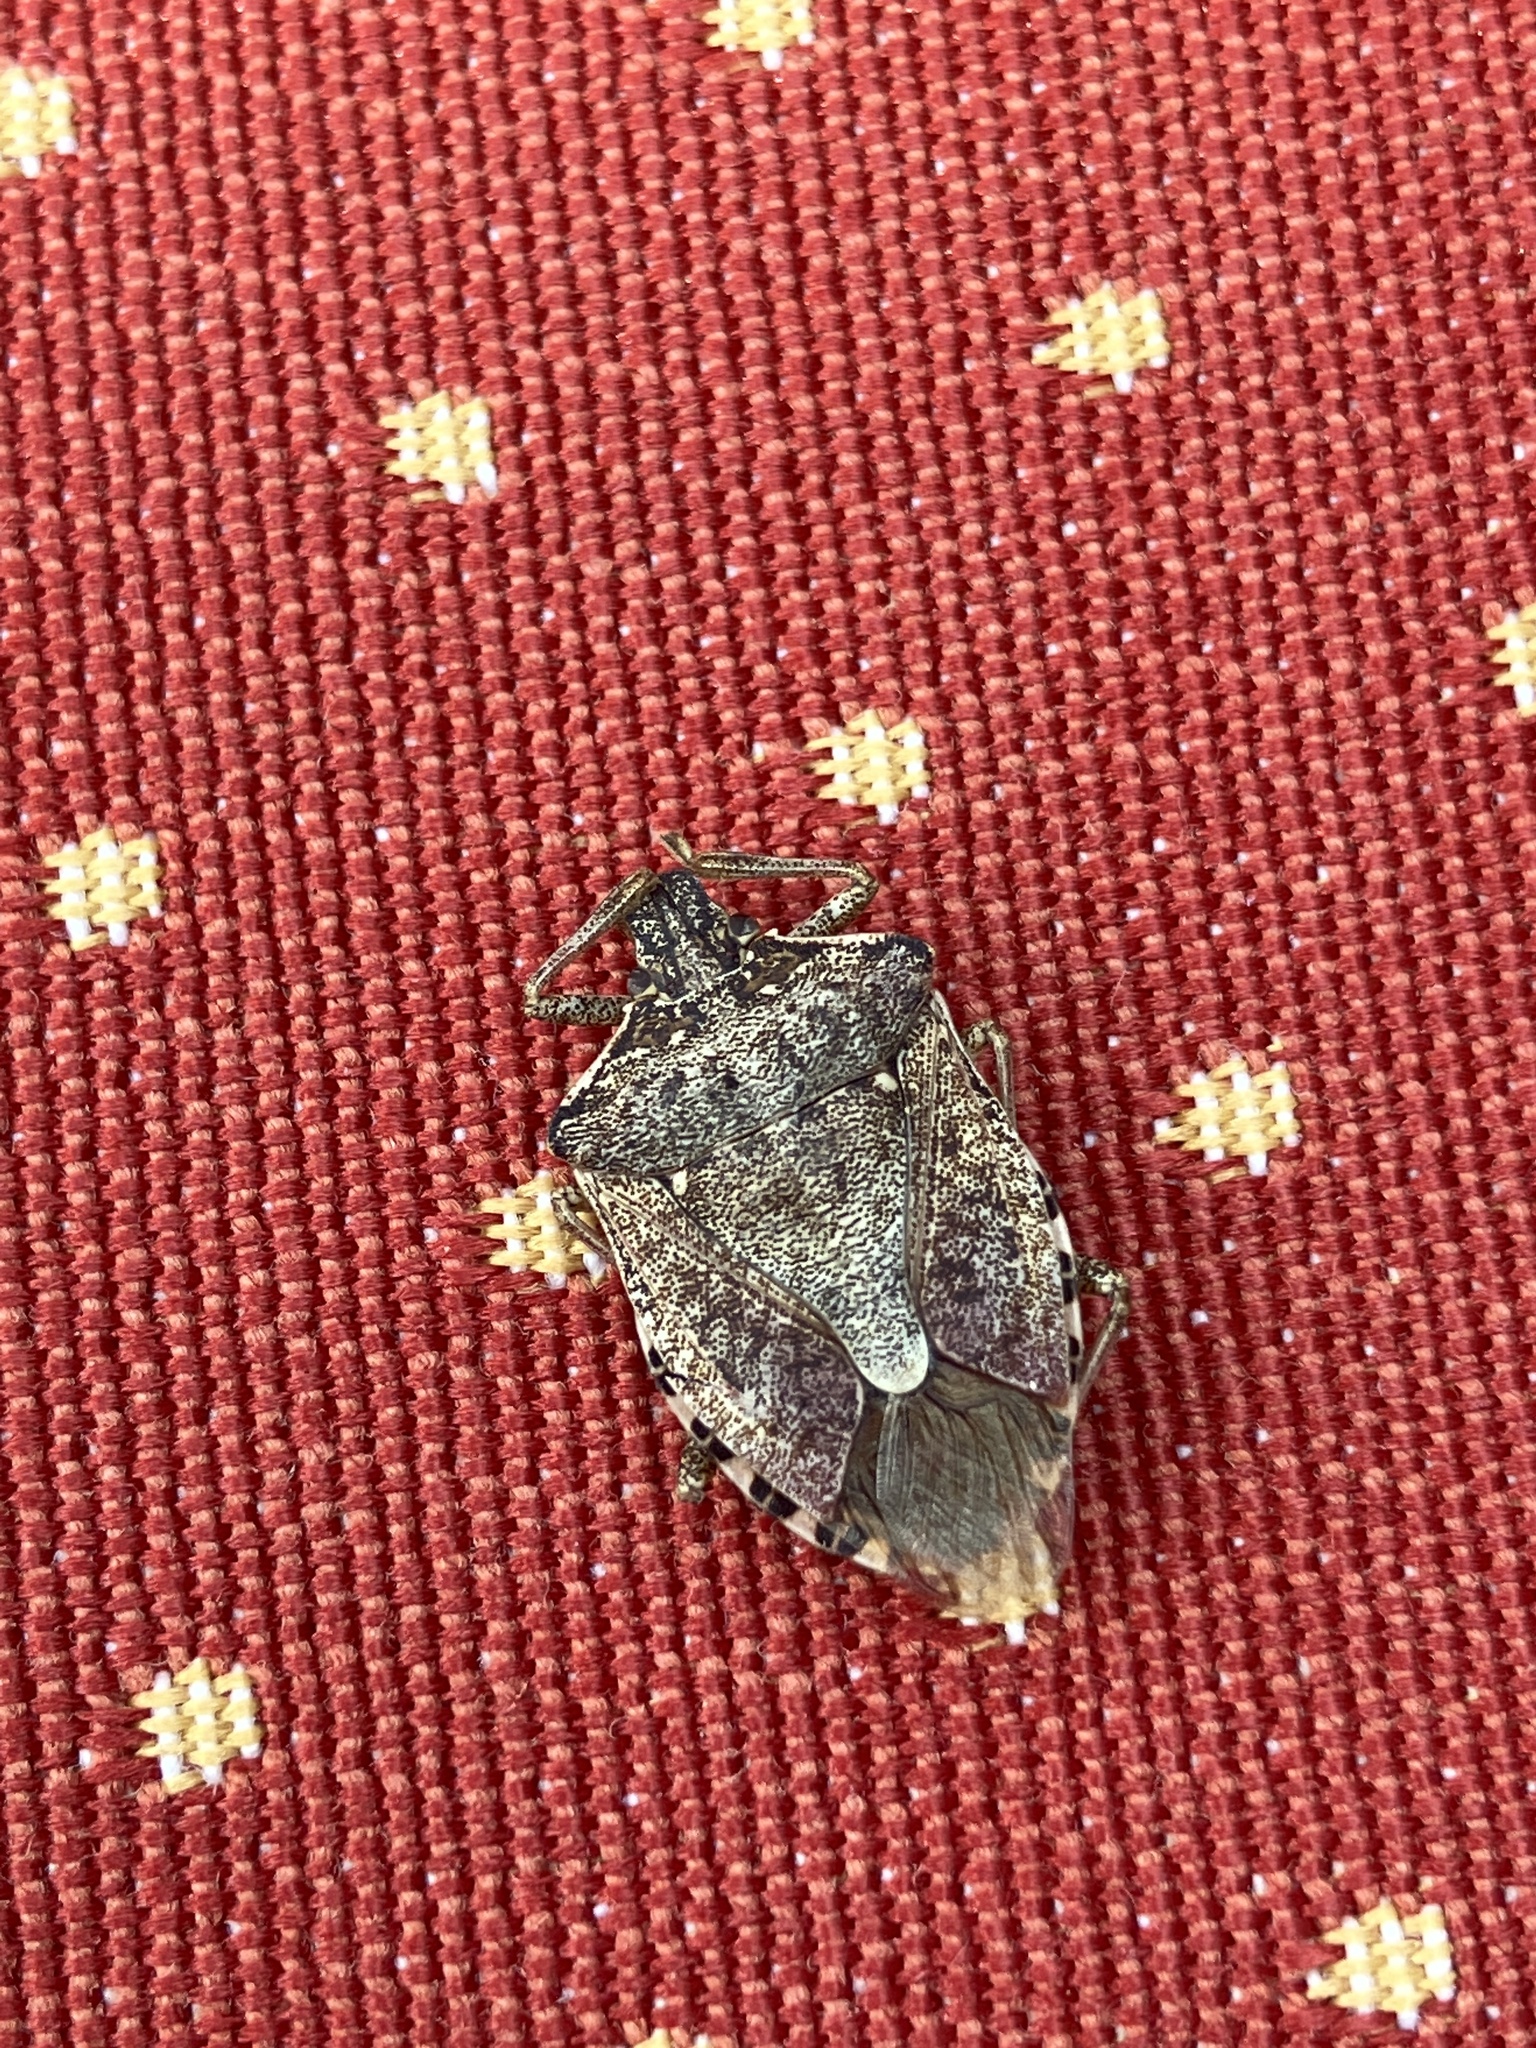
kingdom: Animalia
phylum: Arthropoda
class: Insecta
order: Hemiptera
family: Pentatomidae
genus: Halyomorpha
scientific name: Halyomorpha halys
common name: Brown marmorated stink bug
